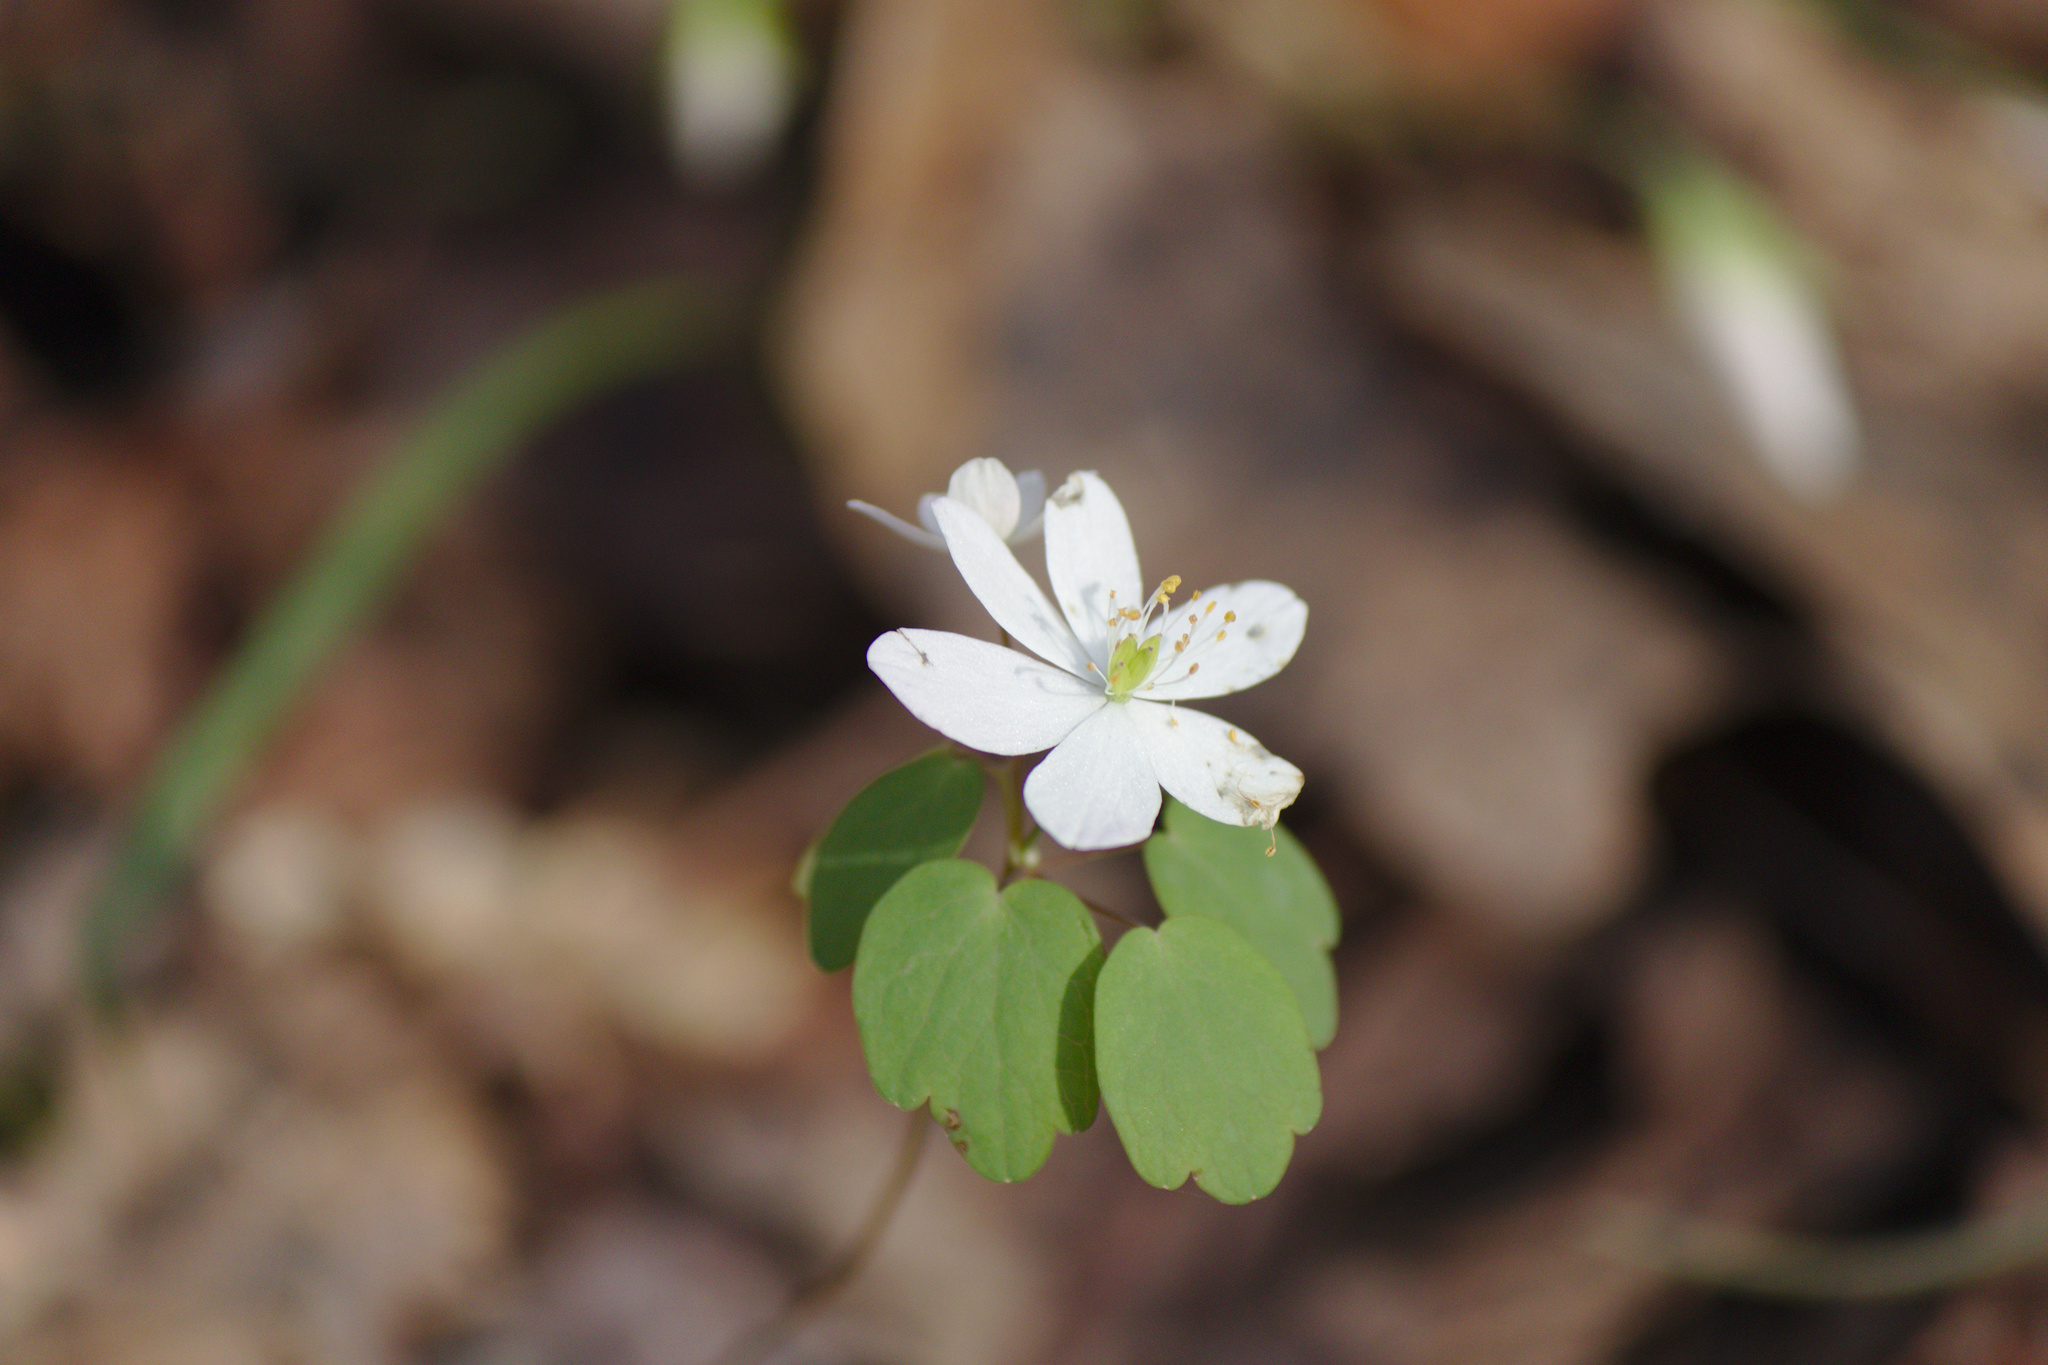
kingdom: Plantae
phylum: Tracheophyta
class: Magnoliopsida
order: Ranunculales
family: Ranunculaceae
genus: Thalictrum
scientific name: Thalictrum thalictroides
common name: Rue-anemone
